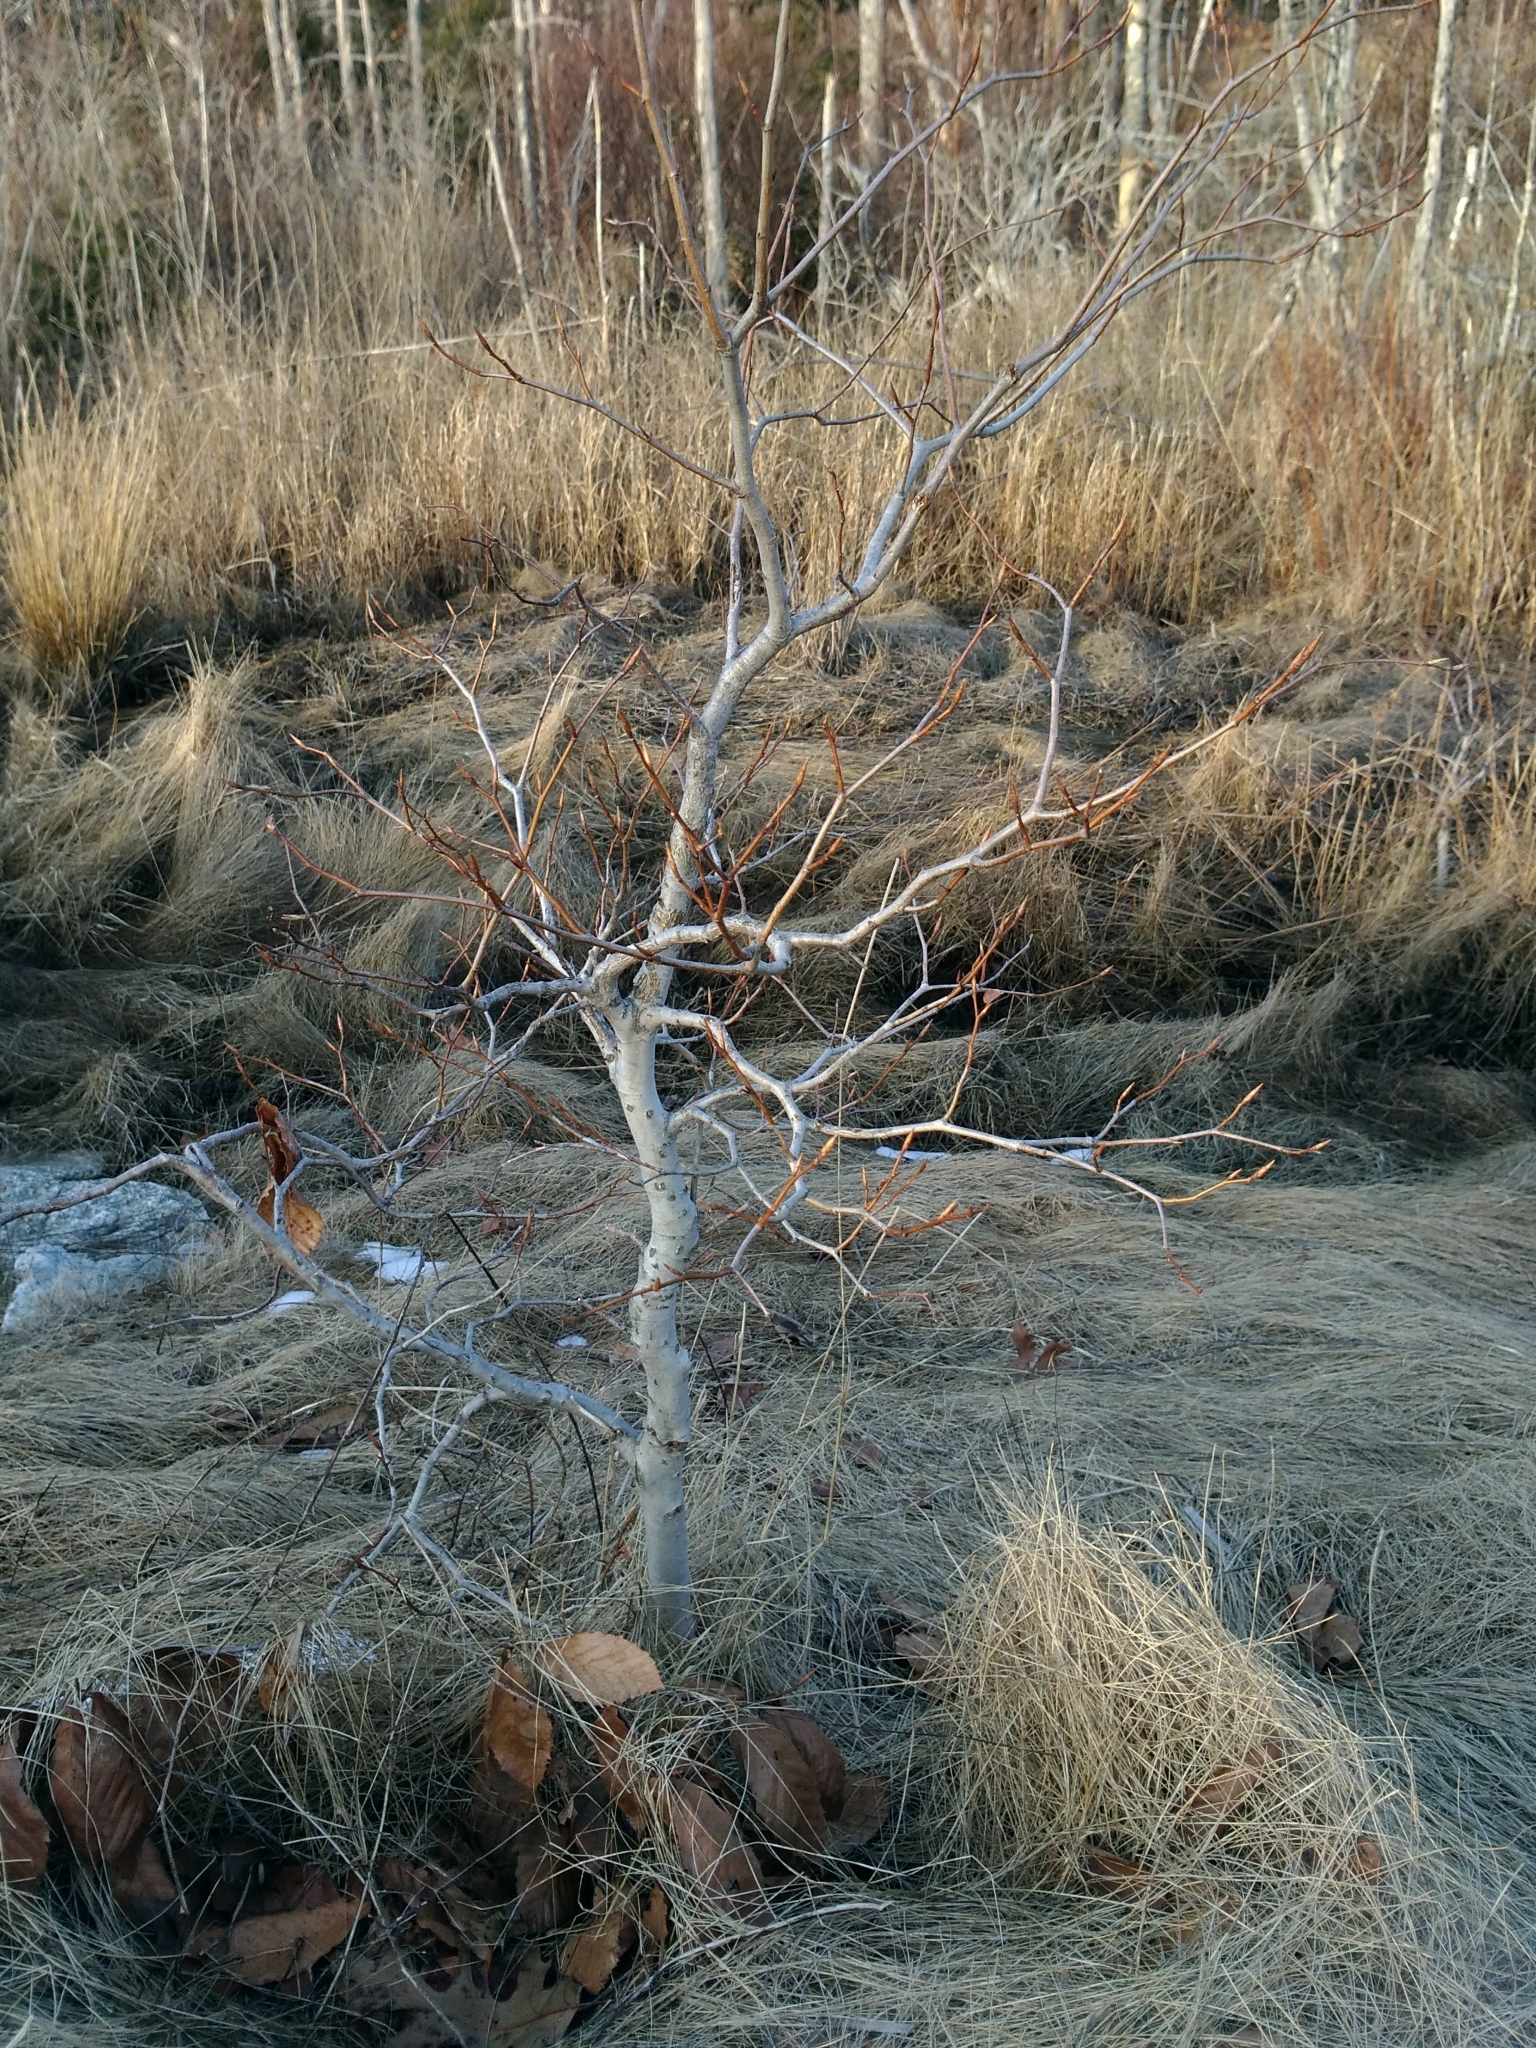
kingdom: Plantae
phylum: Tracheophyta
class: Magnoliopsida
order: Fagales
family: Fagaceae
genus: Fagus
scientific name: Fagus grandifolia
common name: American beech
